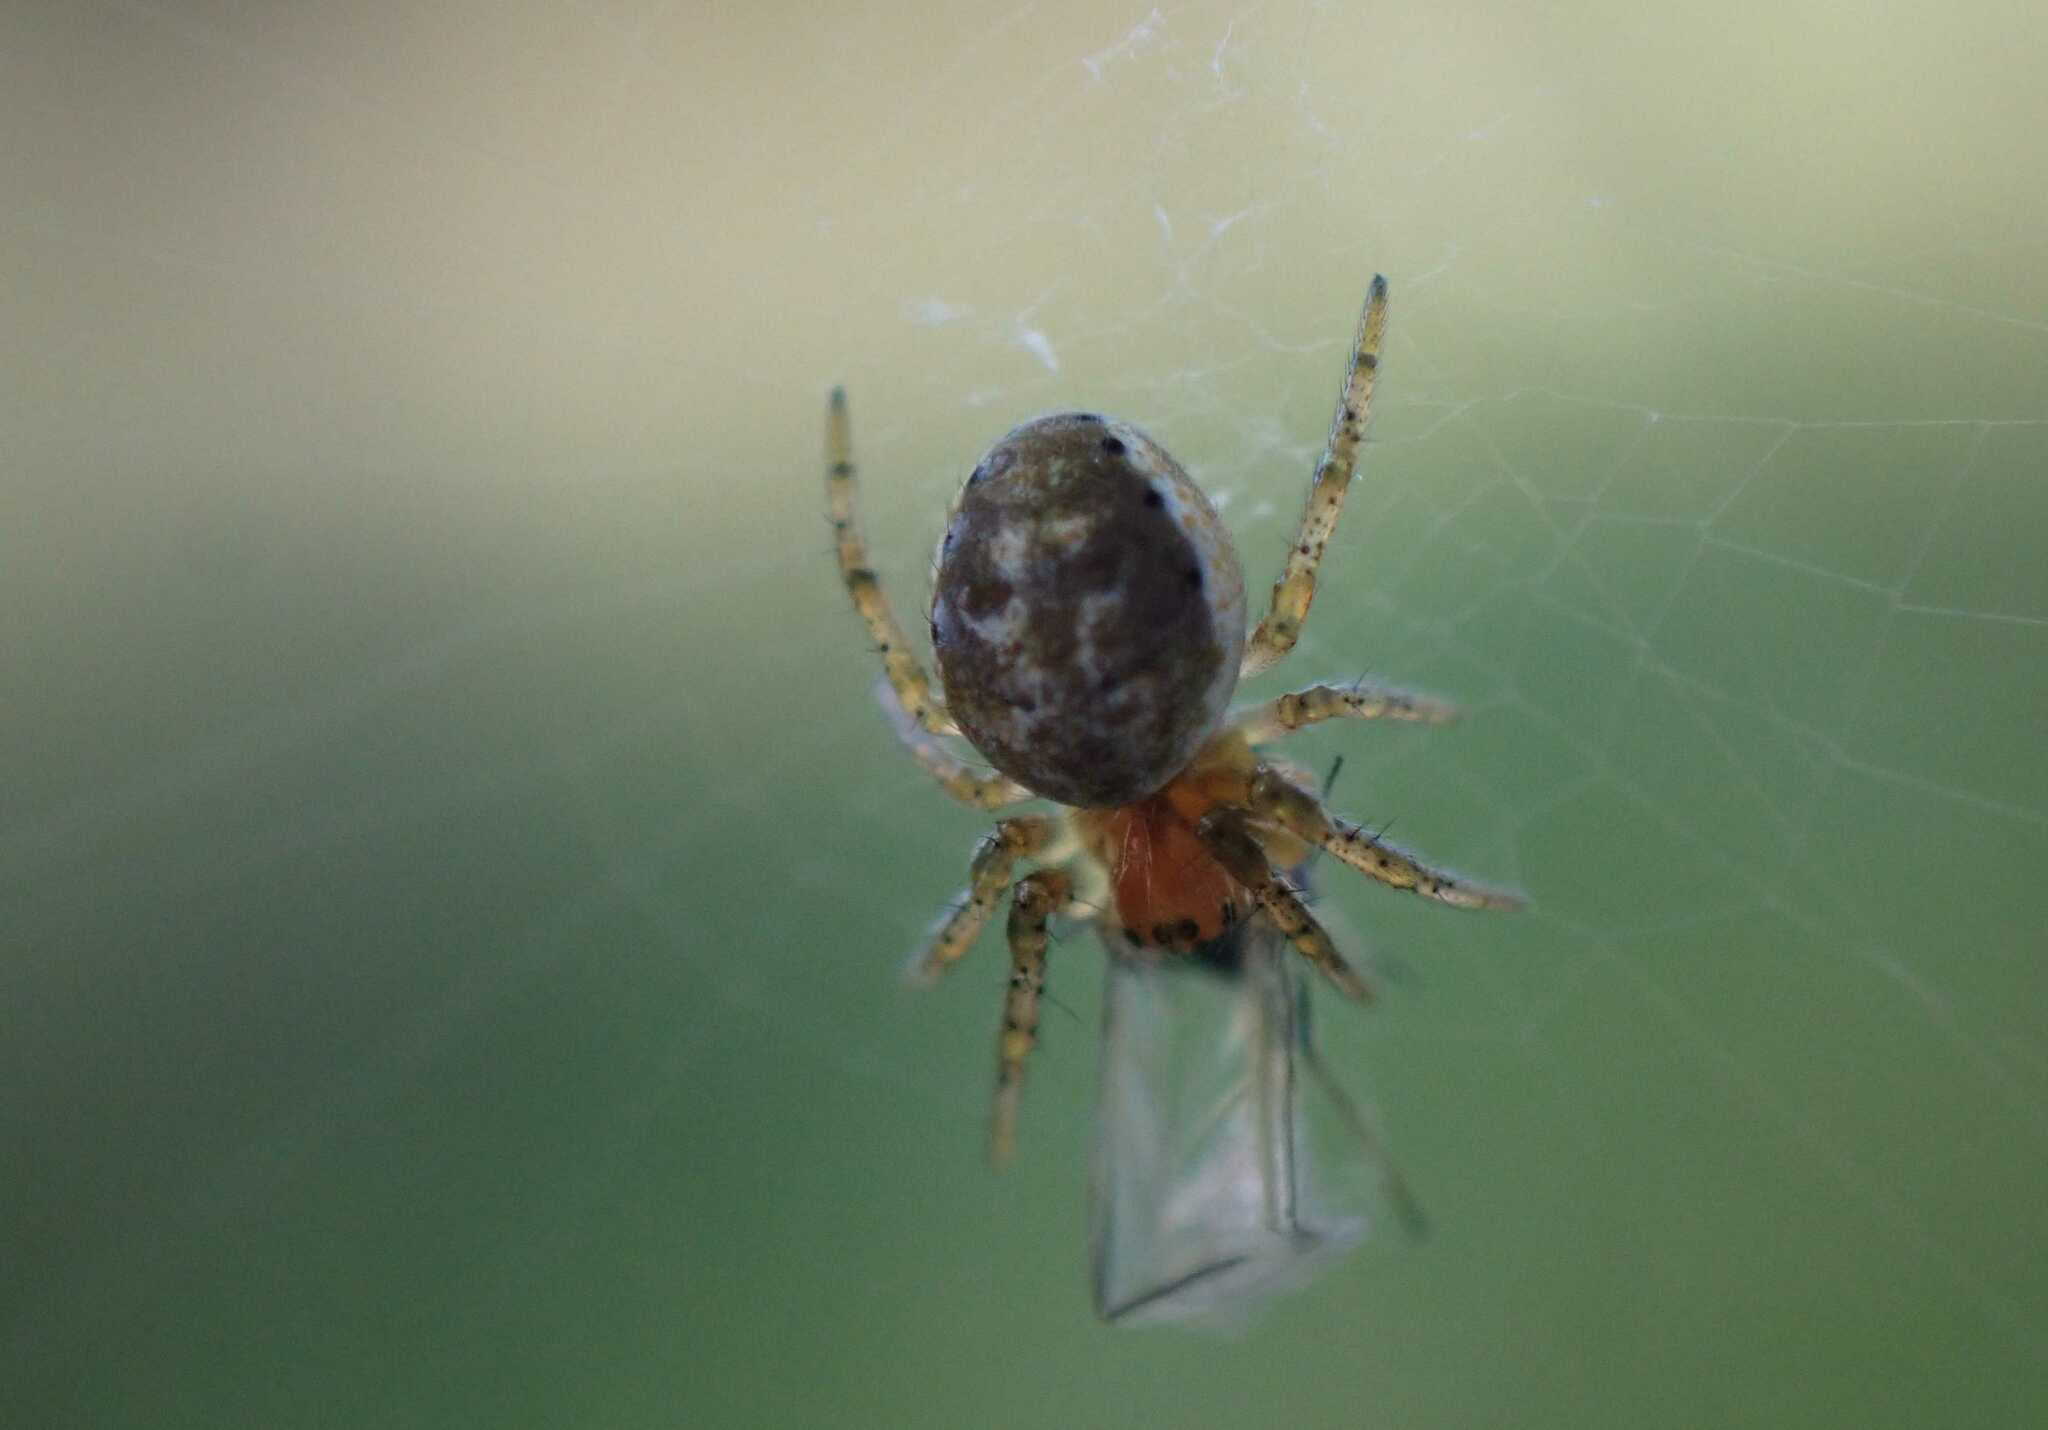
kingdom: Animalia
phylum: Arthropoda
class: Arachnida
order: Araneae
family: Araneidae
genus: Araniella
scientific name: Araniella
